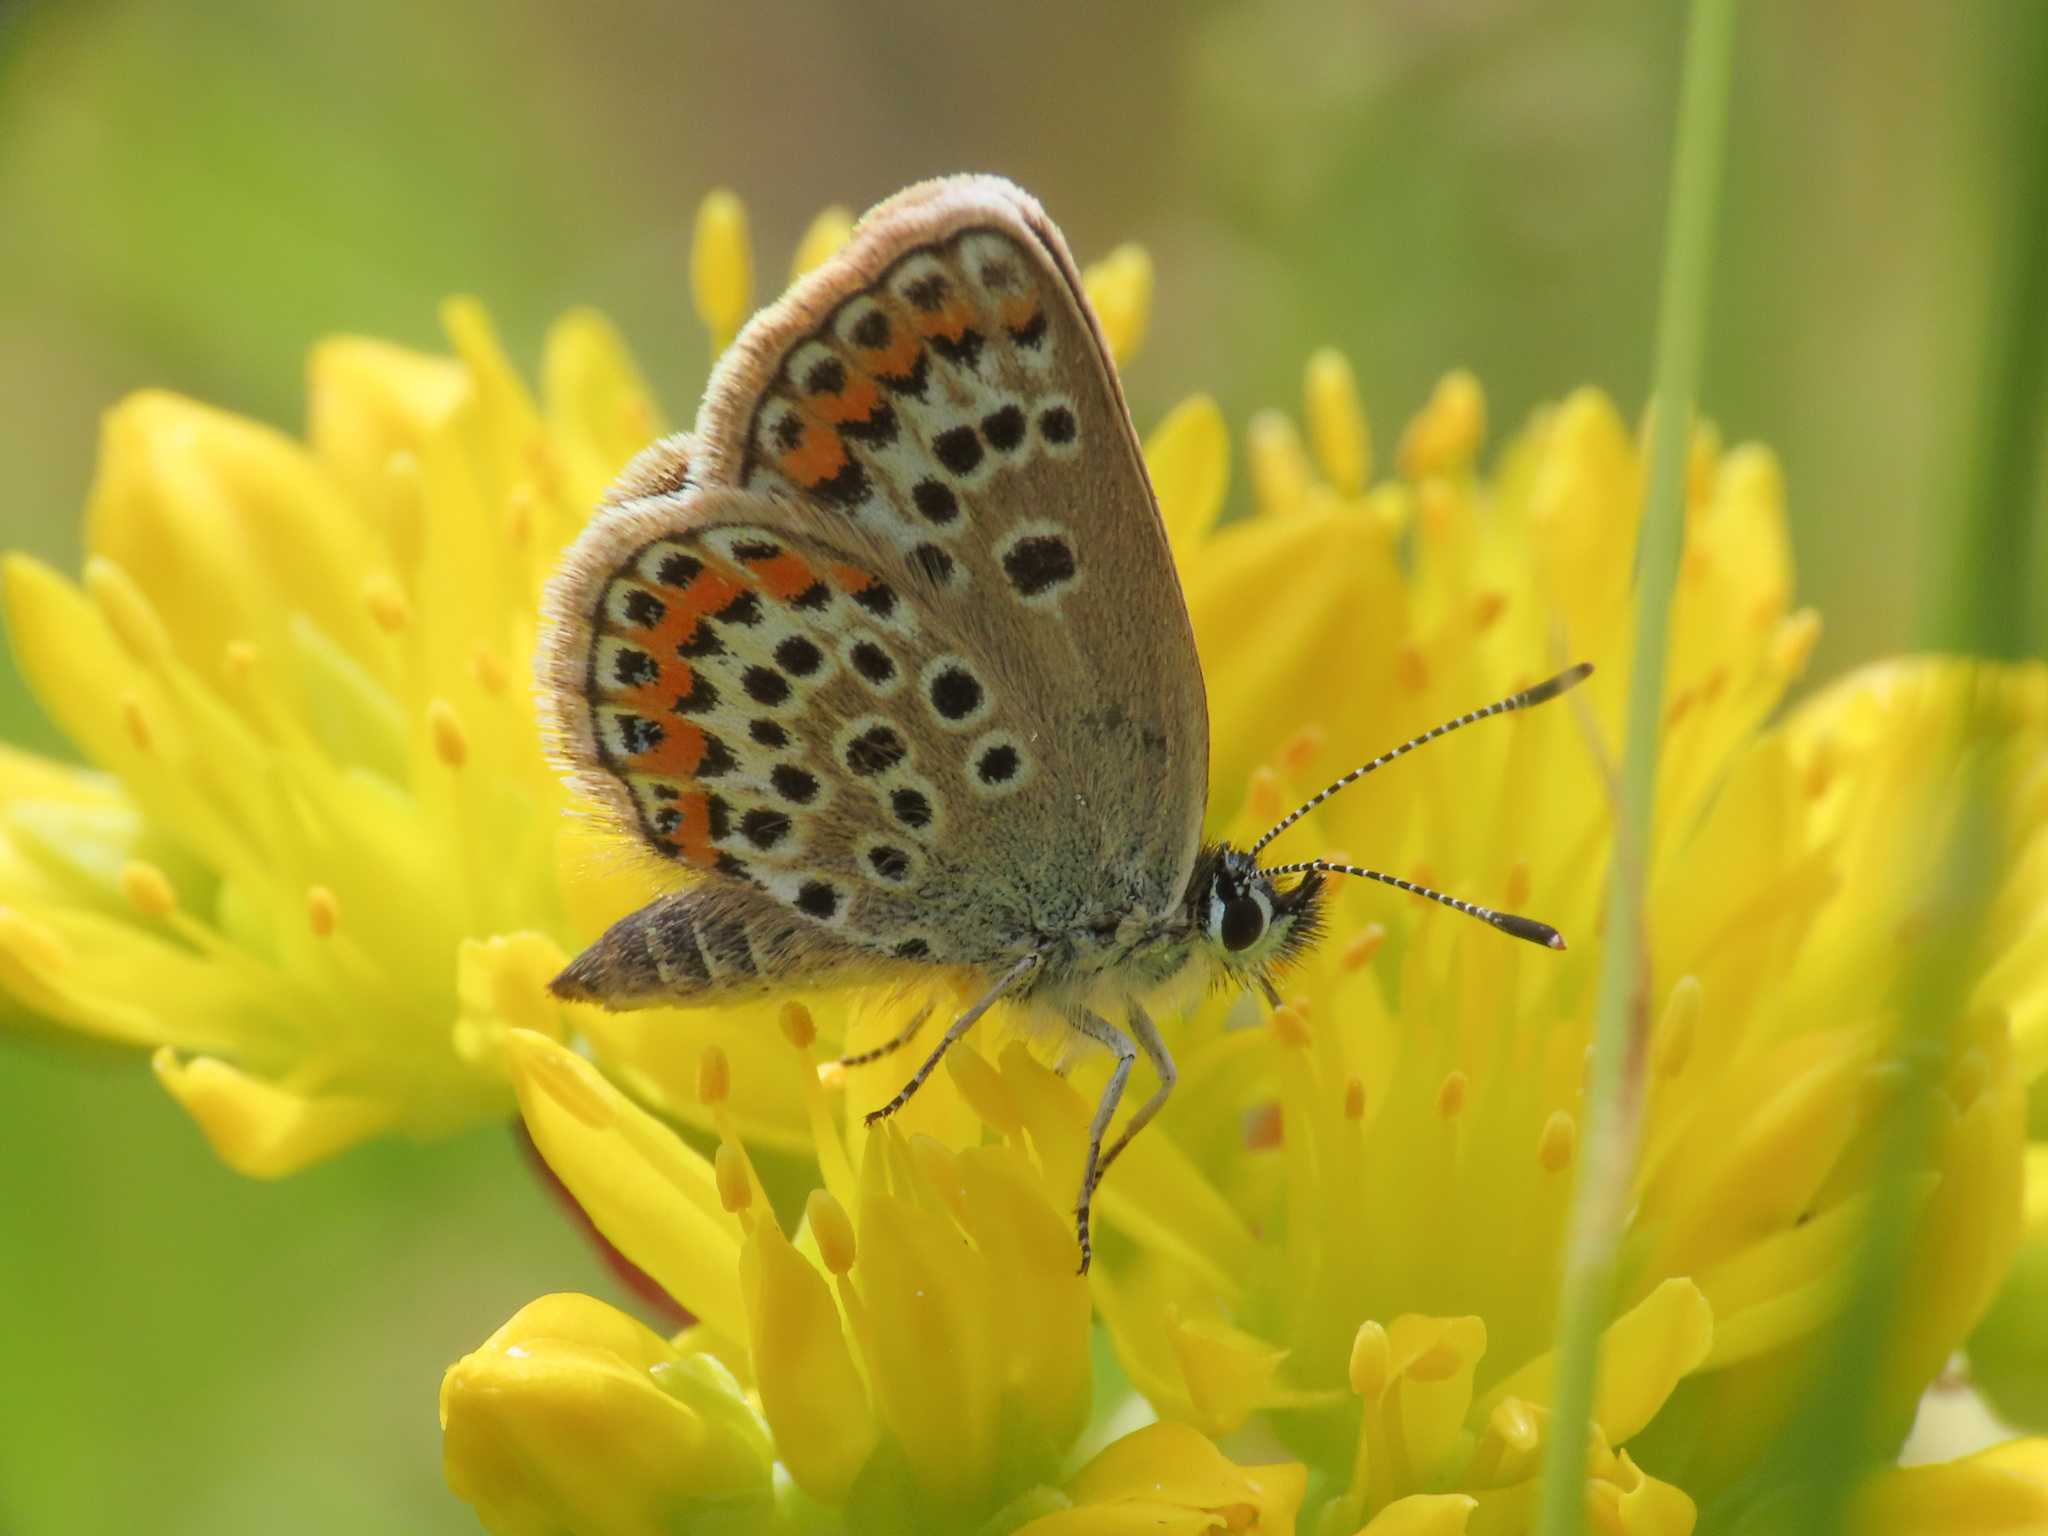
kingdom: Animalia
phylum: Arthropoda
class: Insecta
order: Lepidoptera
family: Lycaenidae
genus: Plebejus
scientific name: Plebejus argus
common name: Silver-studded blue
